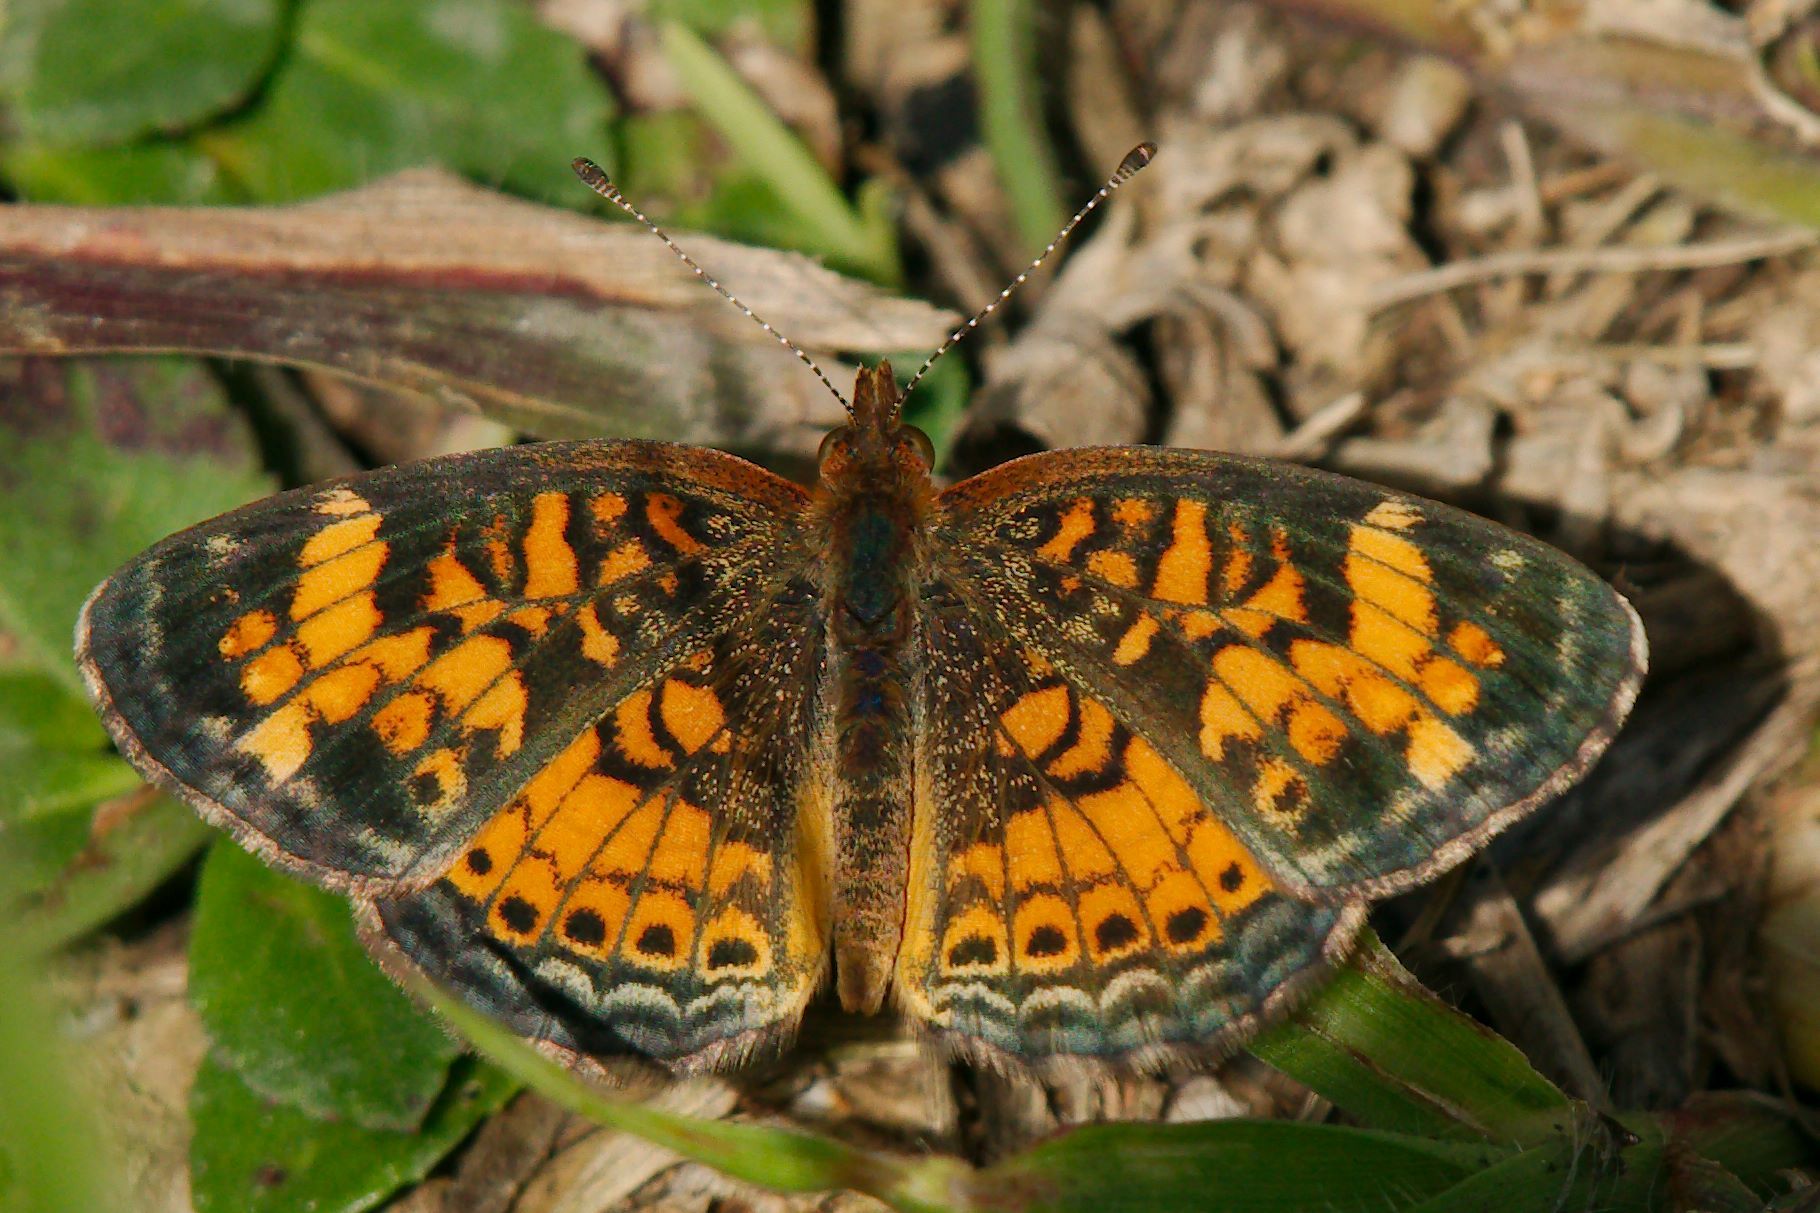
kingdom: Animalia
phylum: Arthropoda
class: Insecta
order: Lepidoptera
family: Nymphalidae
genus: Phyciodes
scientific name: Phyciodes tharos
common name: Pearl crescent
